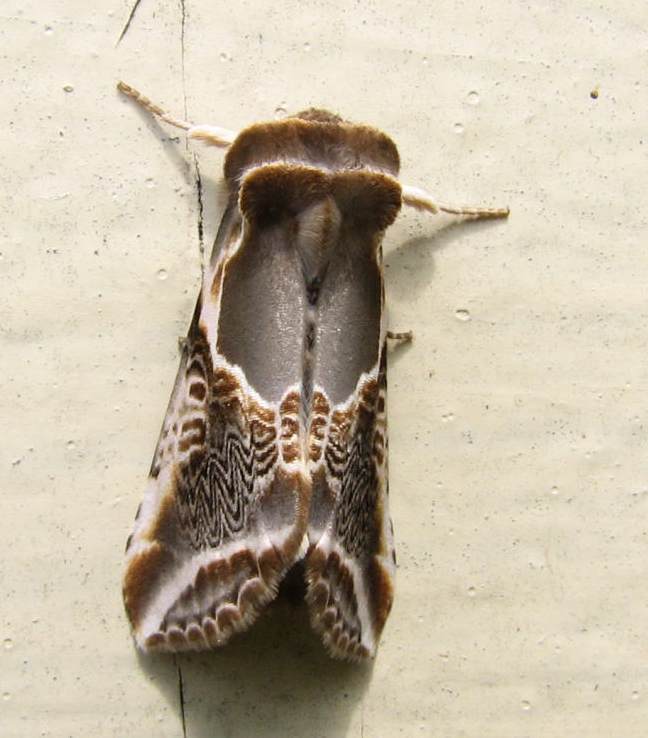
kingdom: Animalia
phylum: Arthropoda
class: Insecta
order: Lepidoptera
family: Drepanidae
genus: Habrosyne
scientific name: Habrosyne scripta
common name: Lettered habrosyne moth
